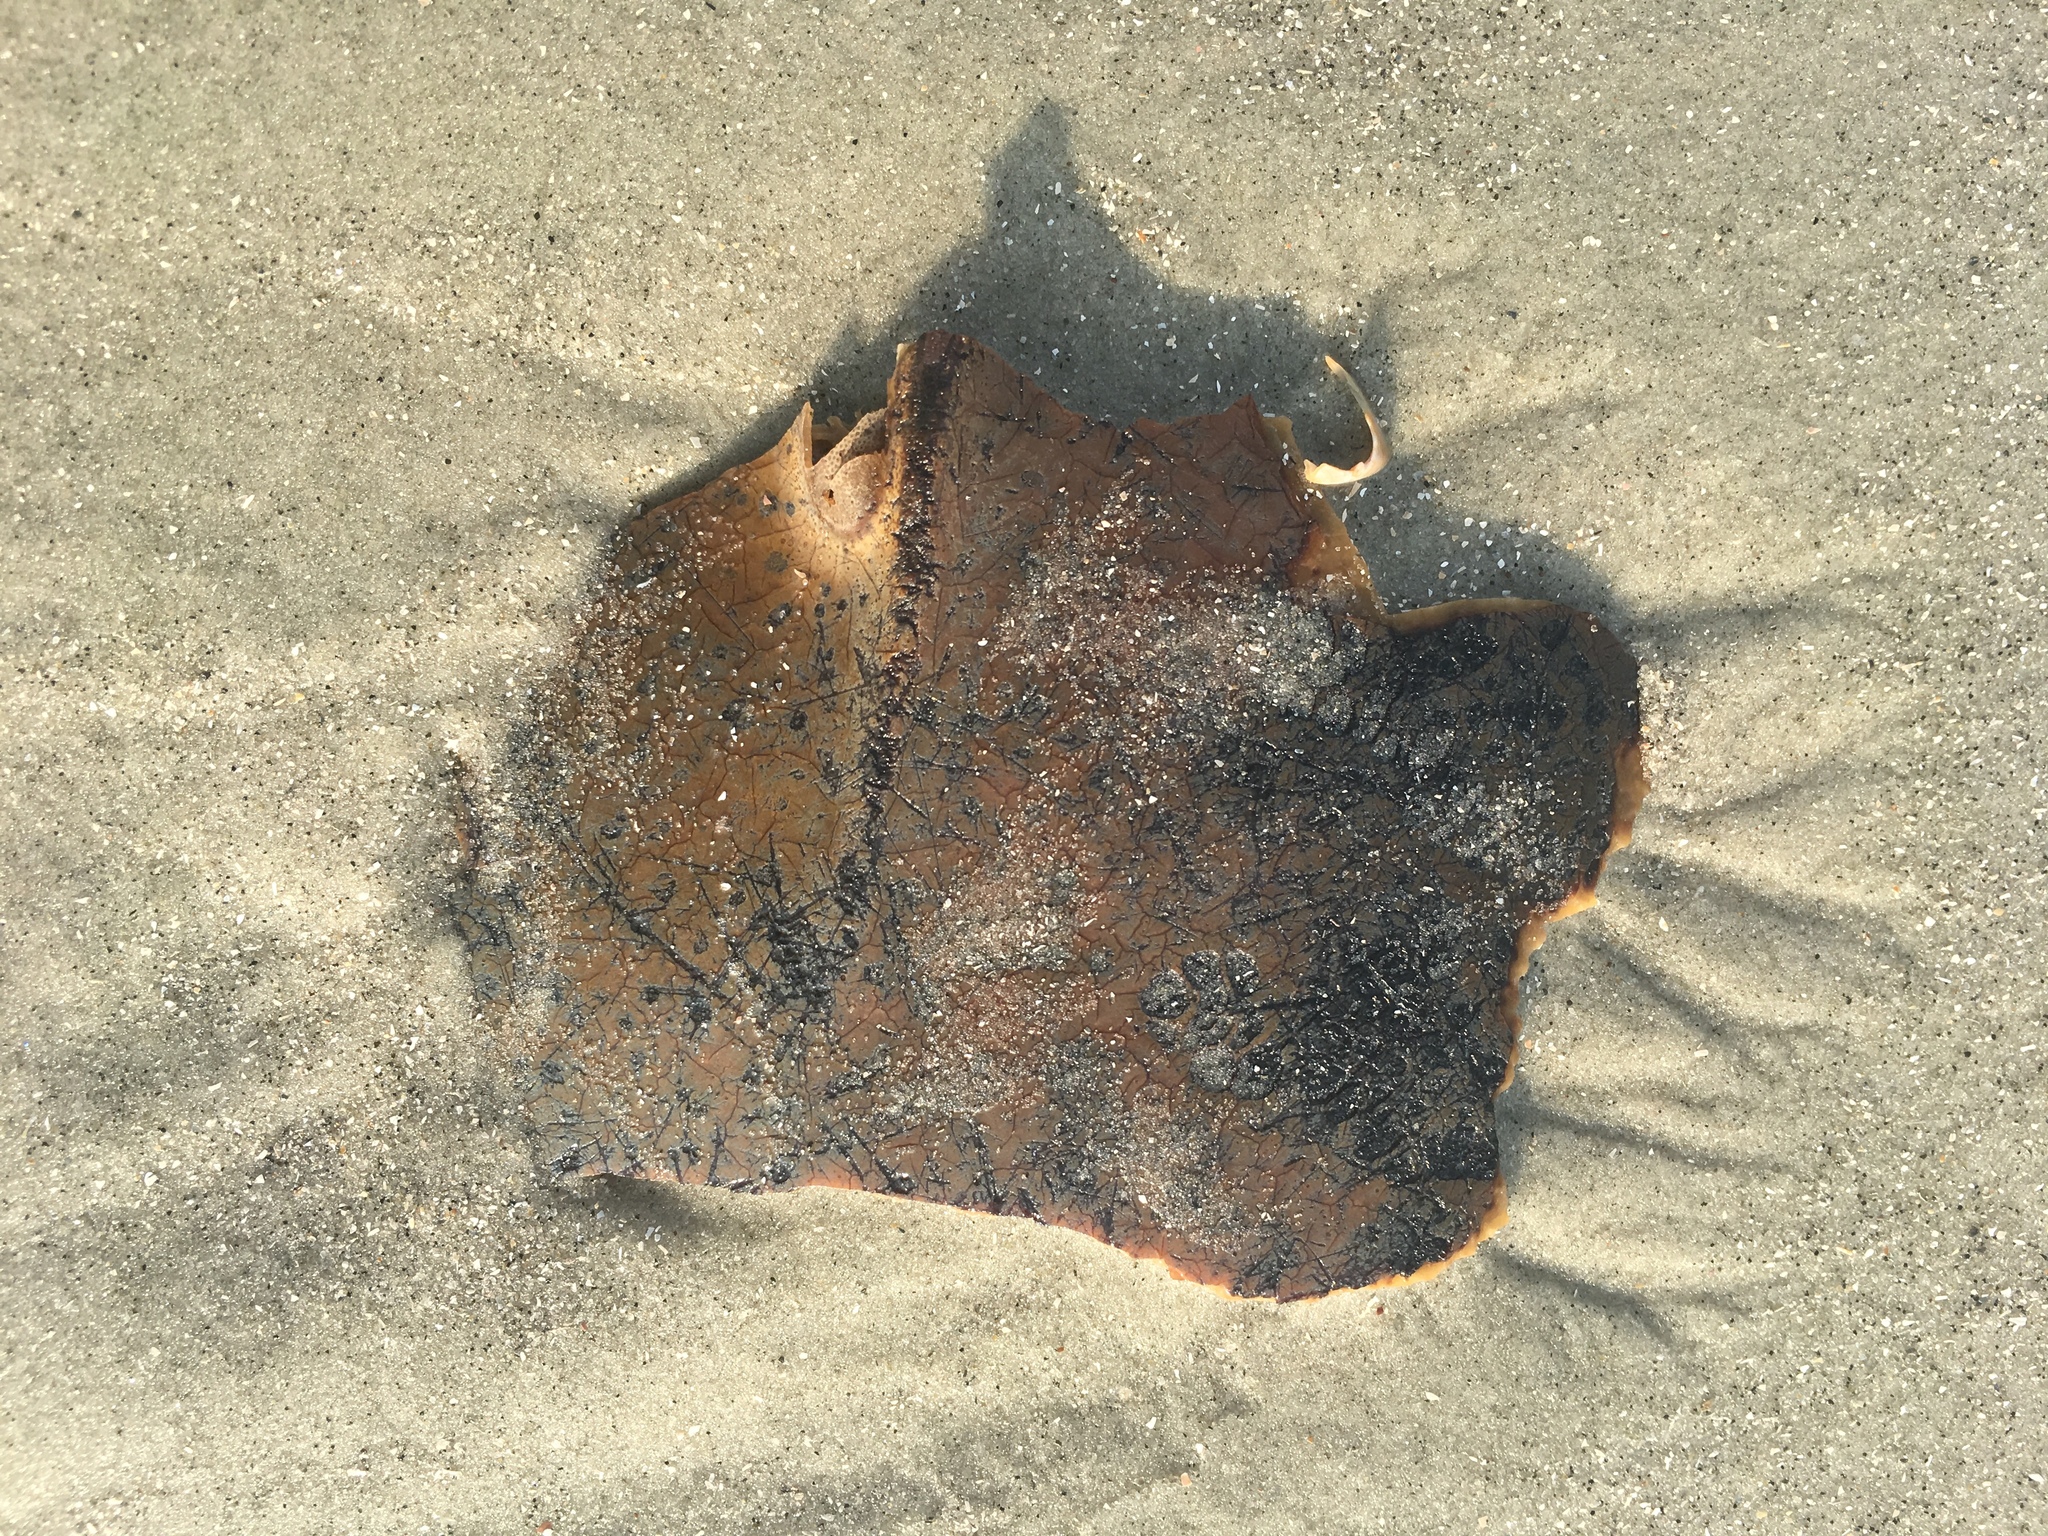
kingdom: Animalia
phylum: Arthropoda
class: Merostomata
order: Xiphosurida
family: Limulidae
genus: Limulus
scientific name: Limulus polyphemus
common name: Horseshoe crab
